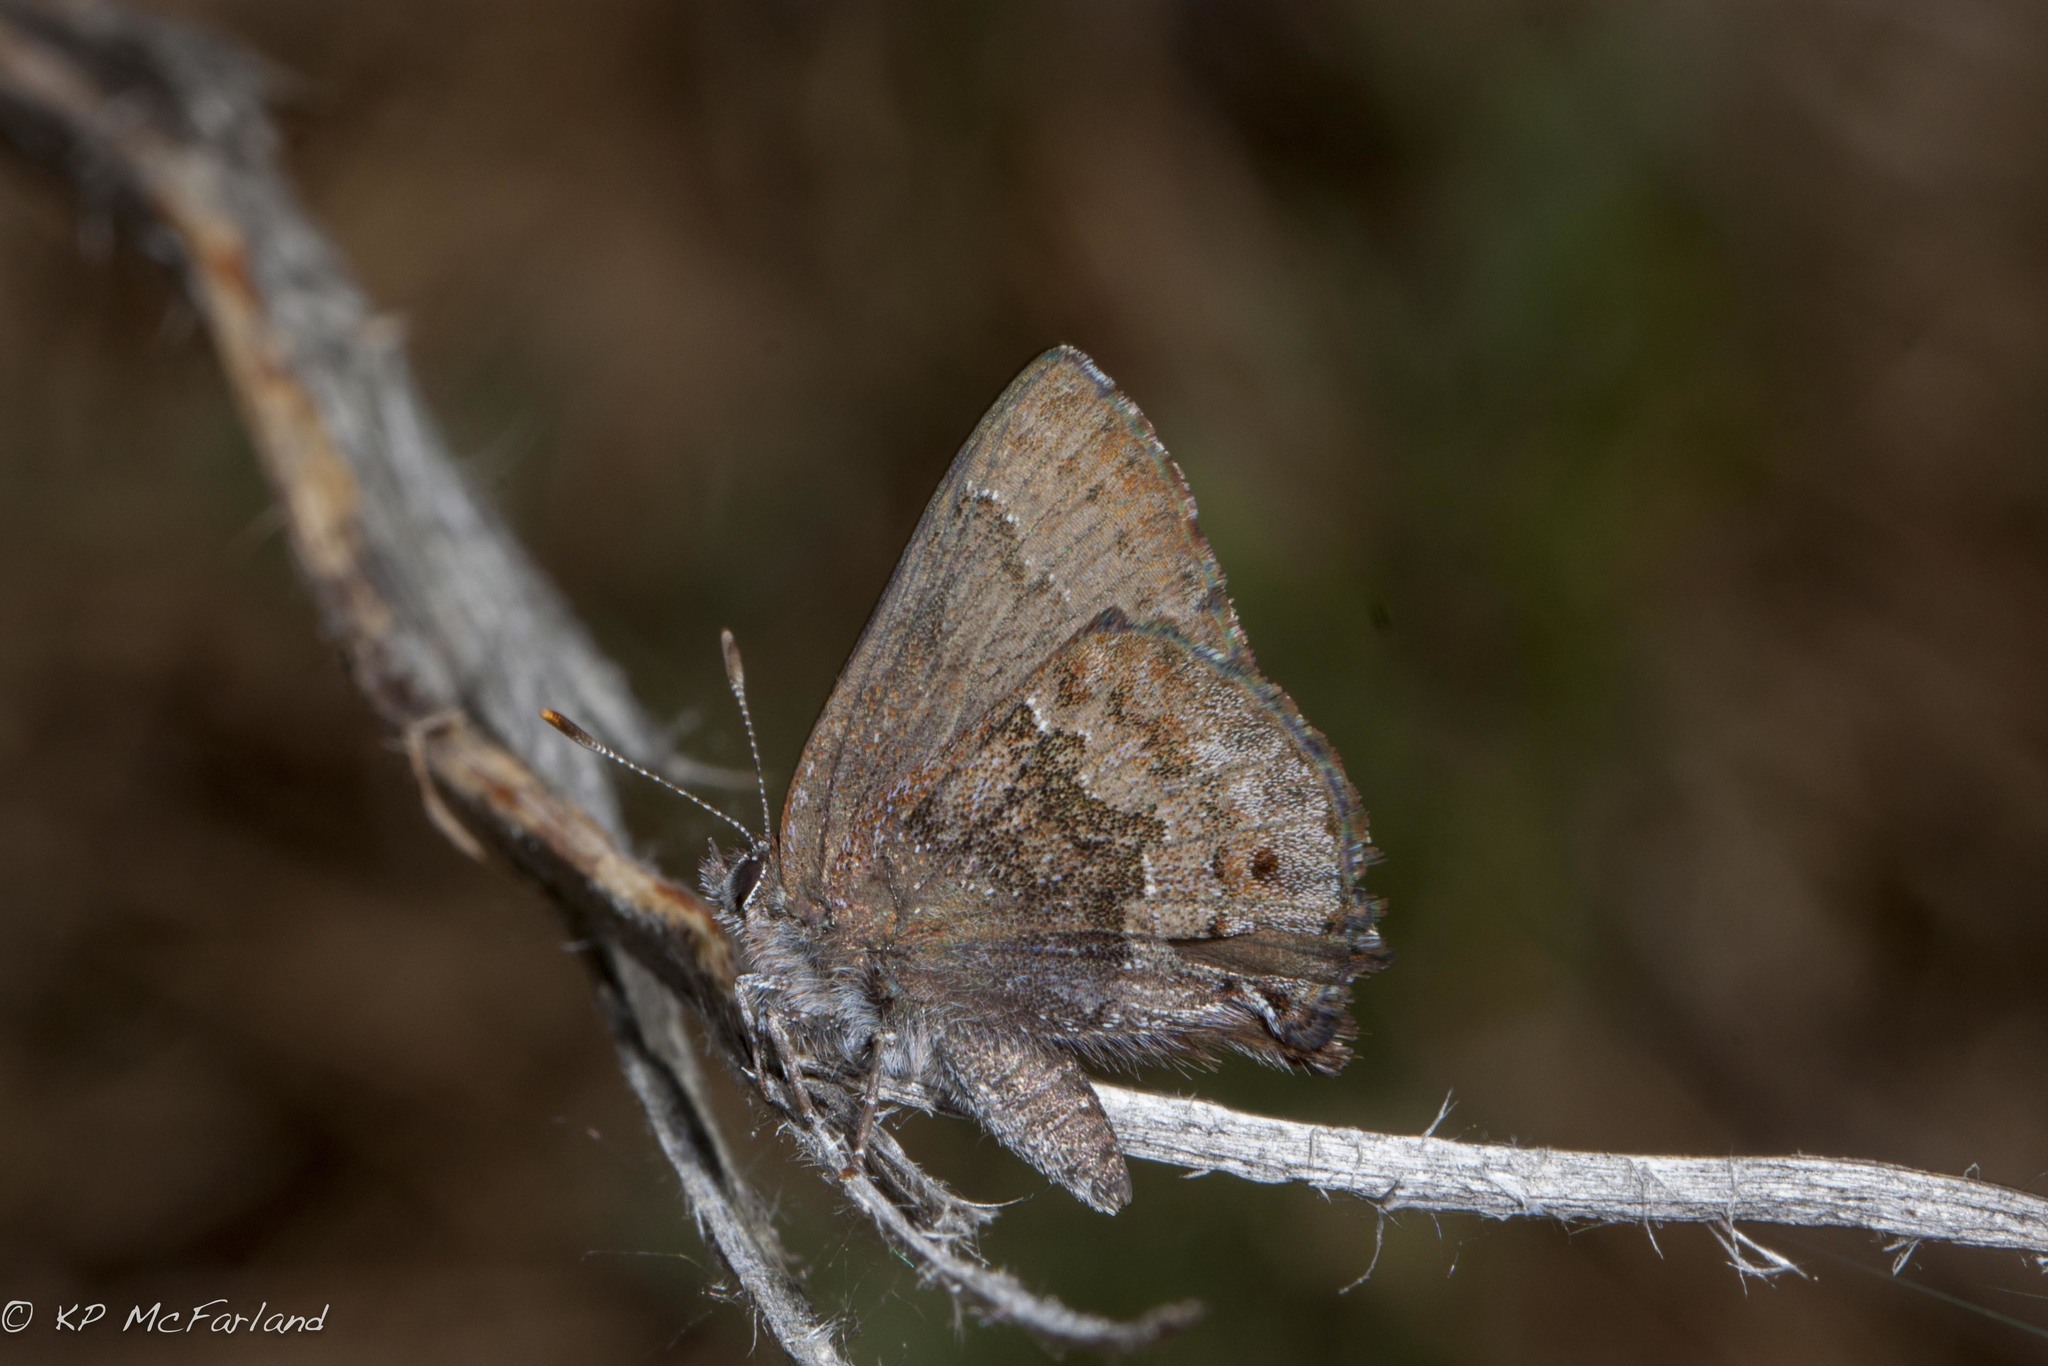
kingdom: Animalia
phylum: Arthropoda
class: Insecta
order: Lepidoptera
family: Lycaenidae
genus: Thecla
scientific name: Thecla irus
